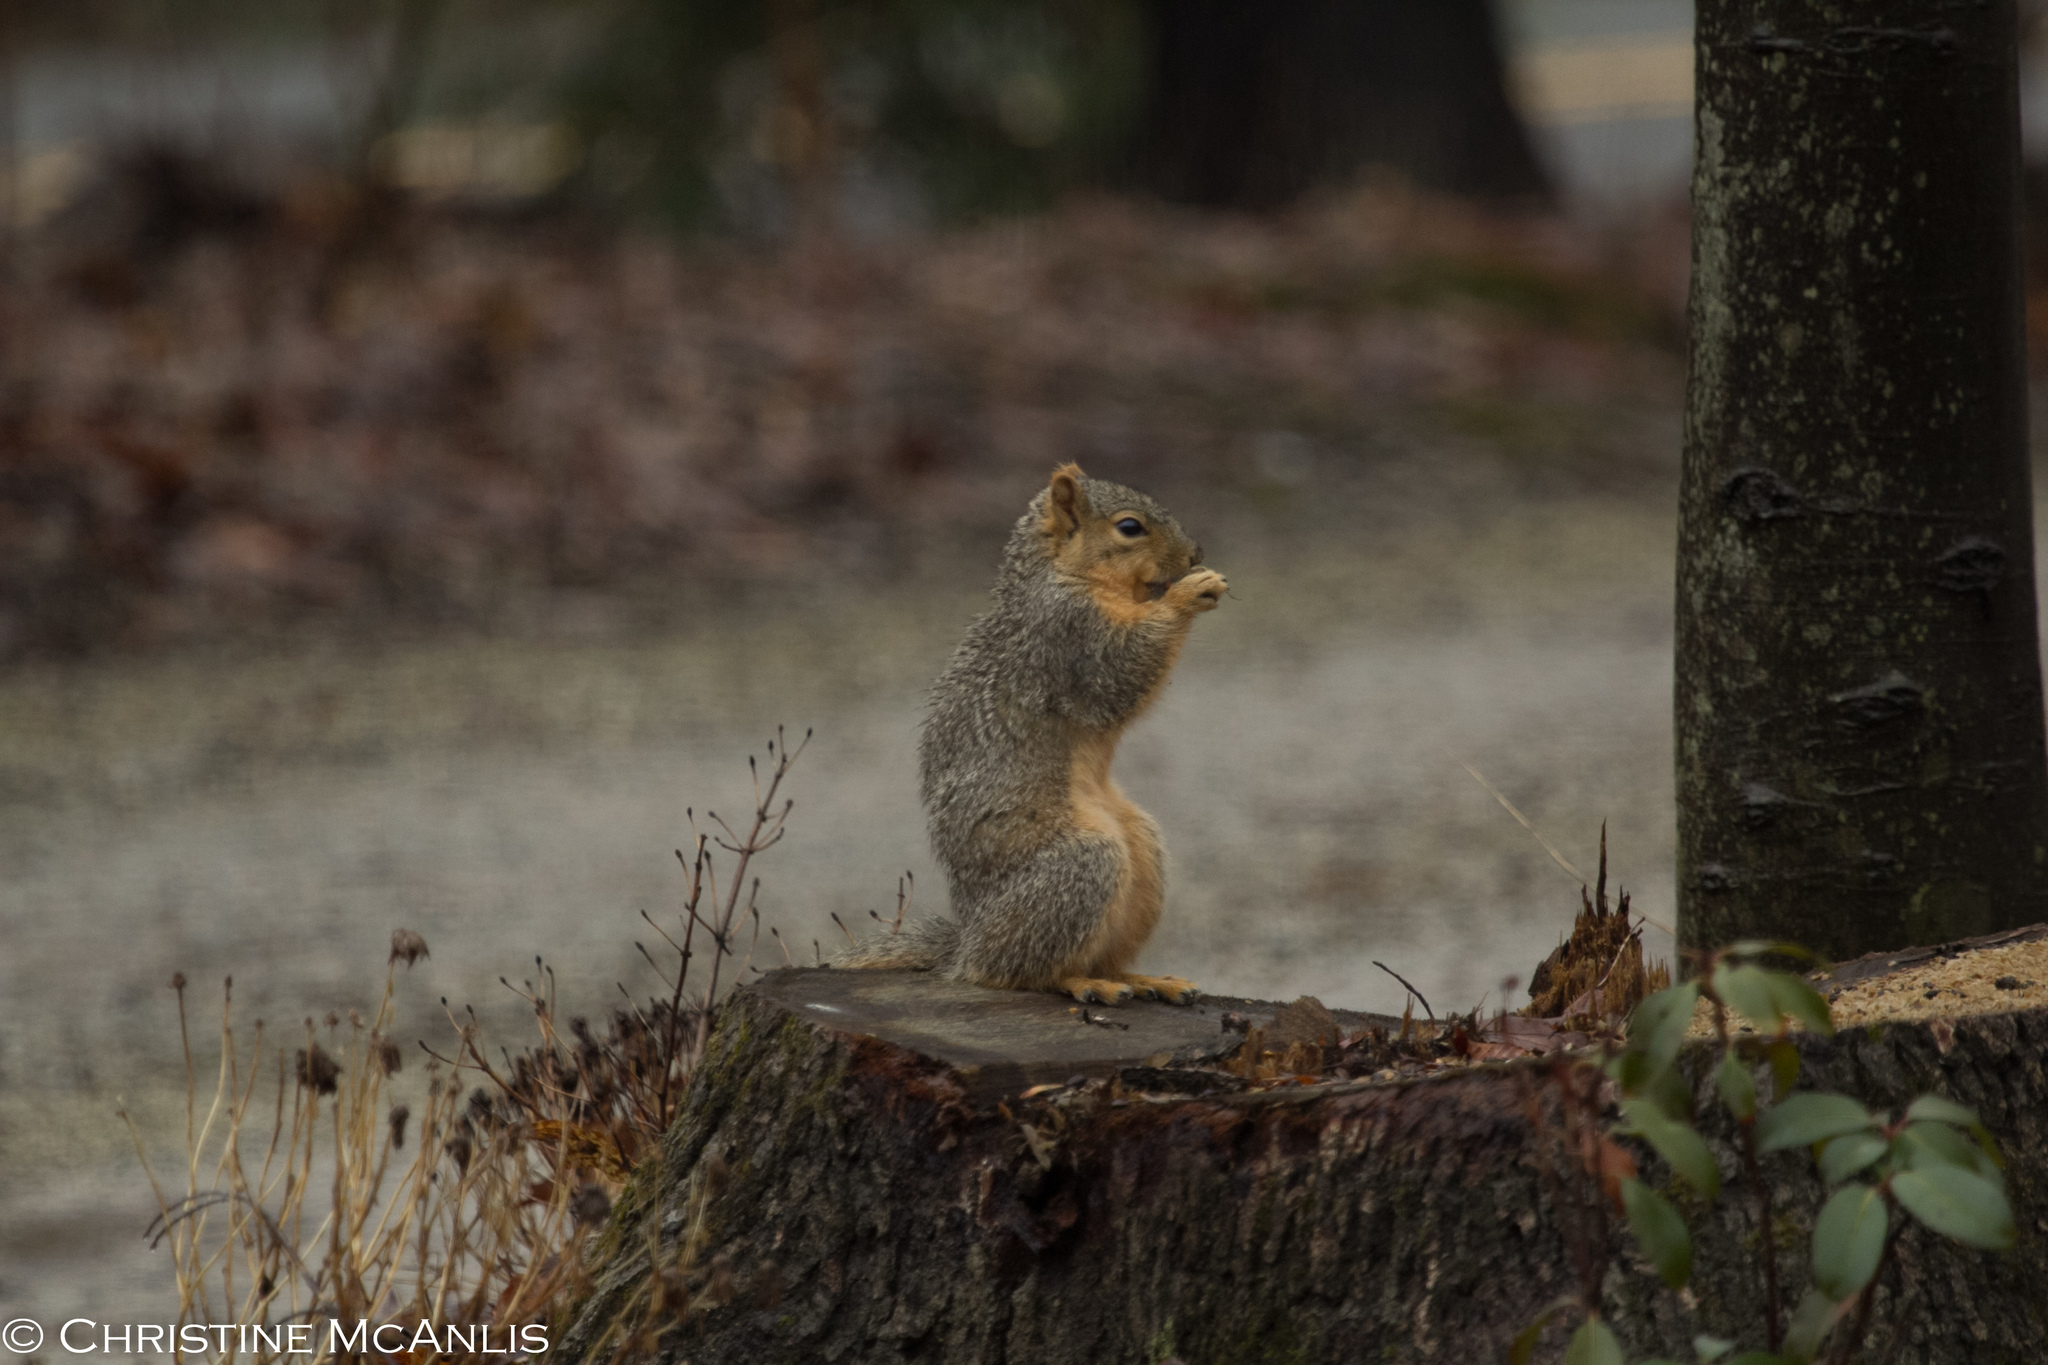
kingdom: Animalia
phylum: Chordata
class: Mammalia
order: Rodentia
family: Sciuridae
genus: Sciurus
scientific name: Sciurus niger
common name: Fox squirrel
